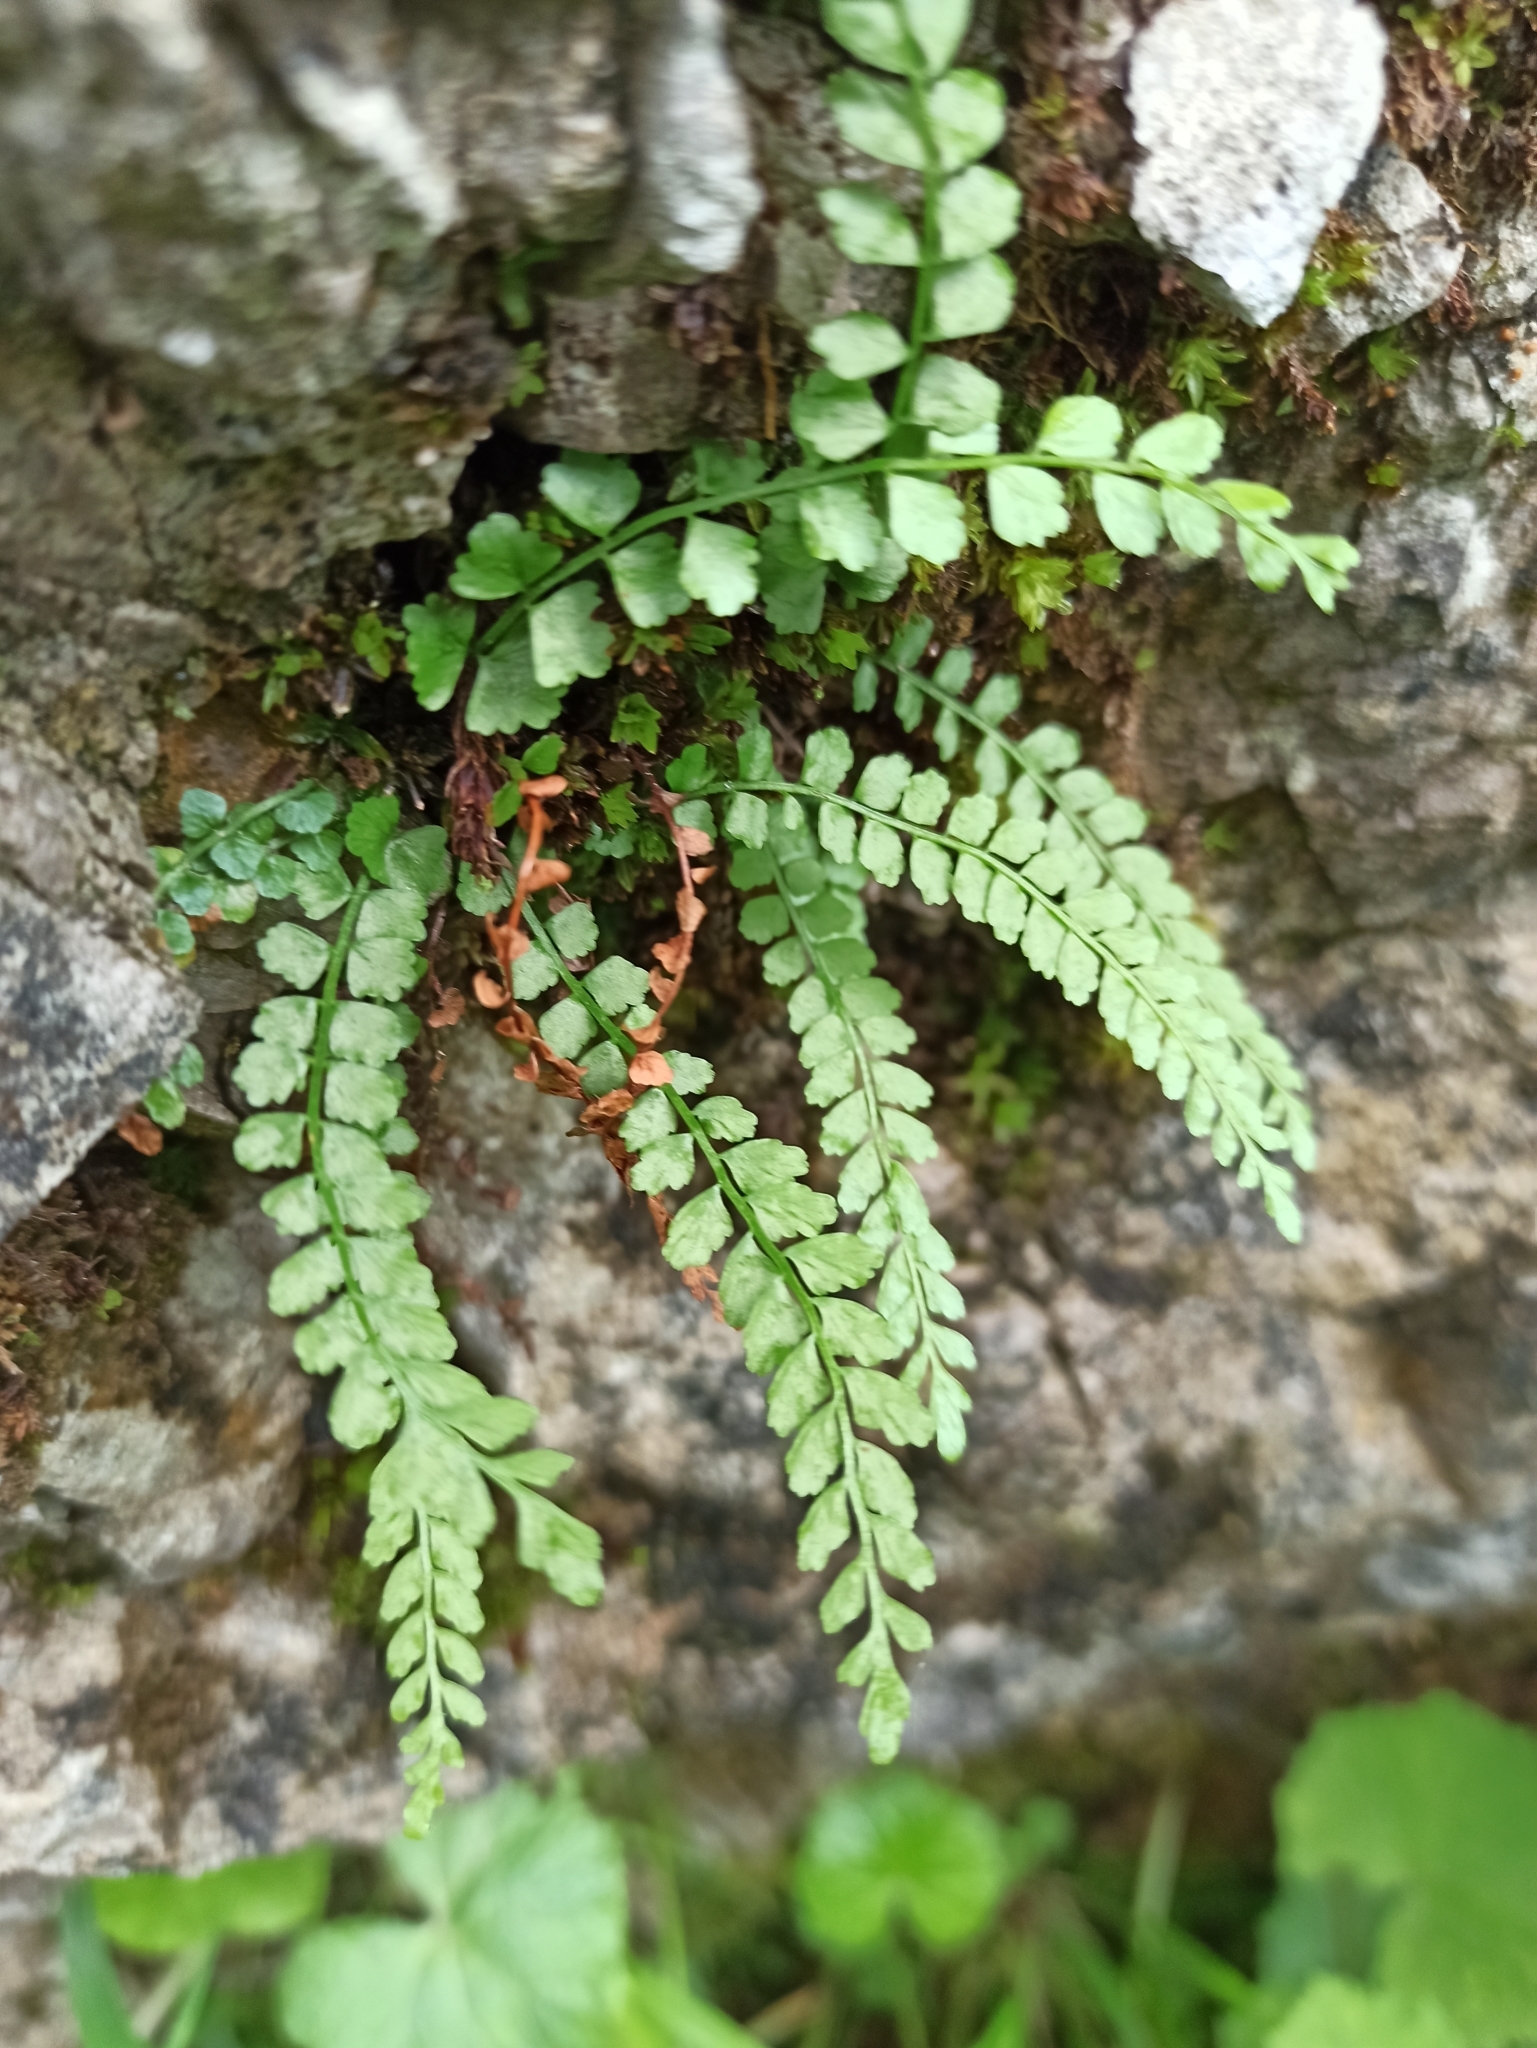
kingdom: Plantae
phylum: Tracheophyta
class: Polypodiopsida
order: Polypodiales
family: Aspleniaceae
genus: Asplenium
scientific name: Asplenium viride
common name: Green spleenwort
